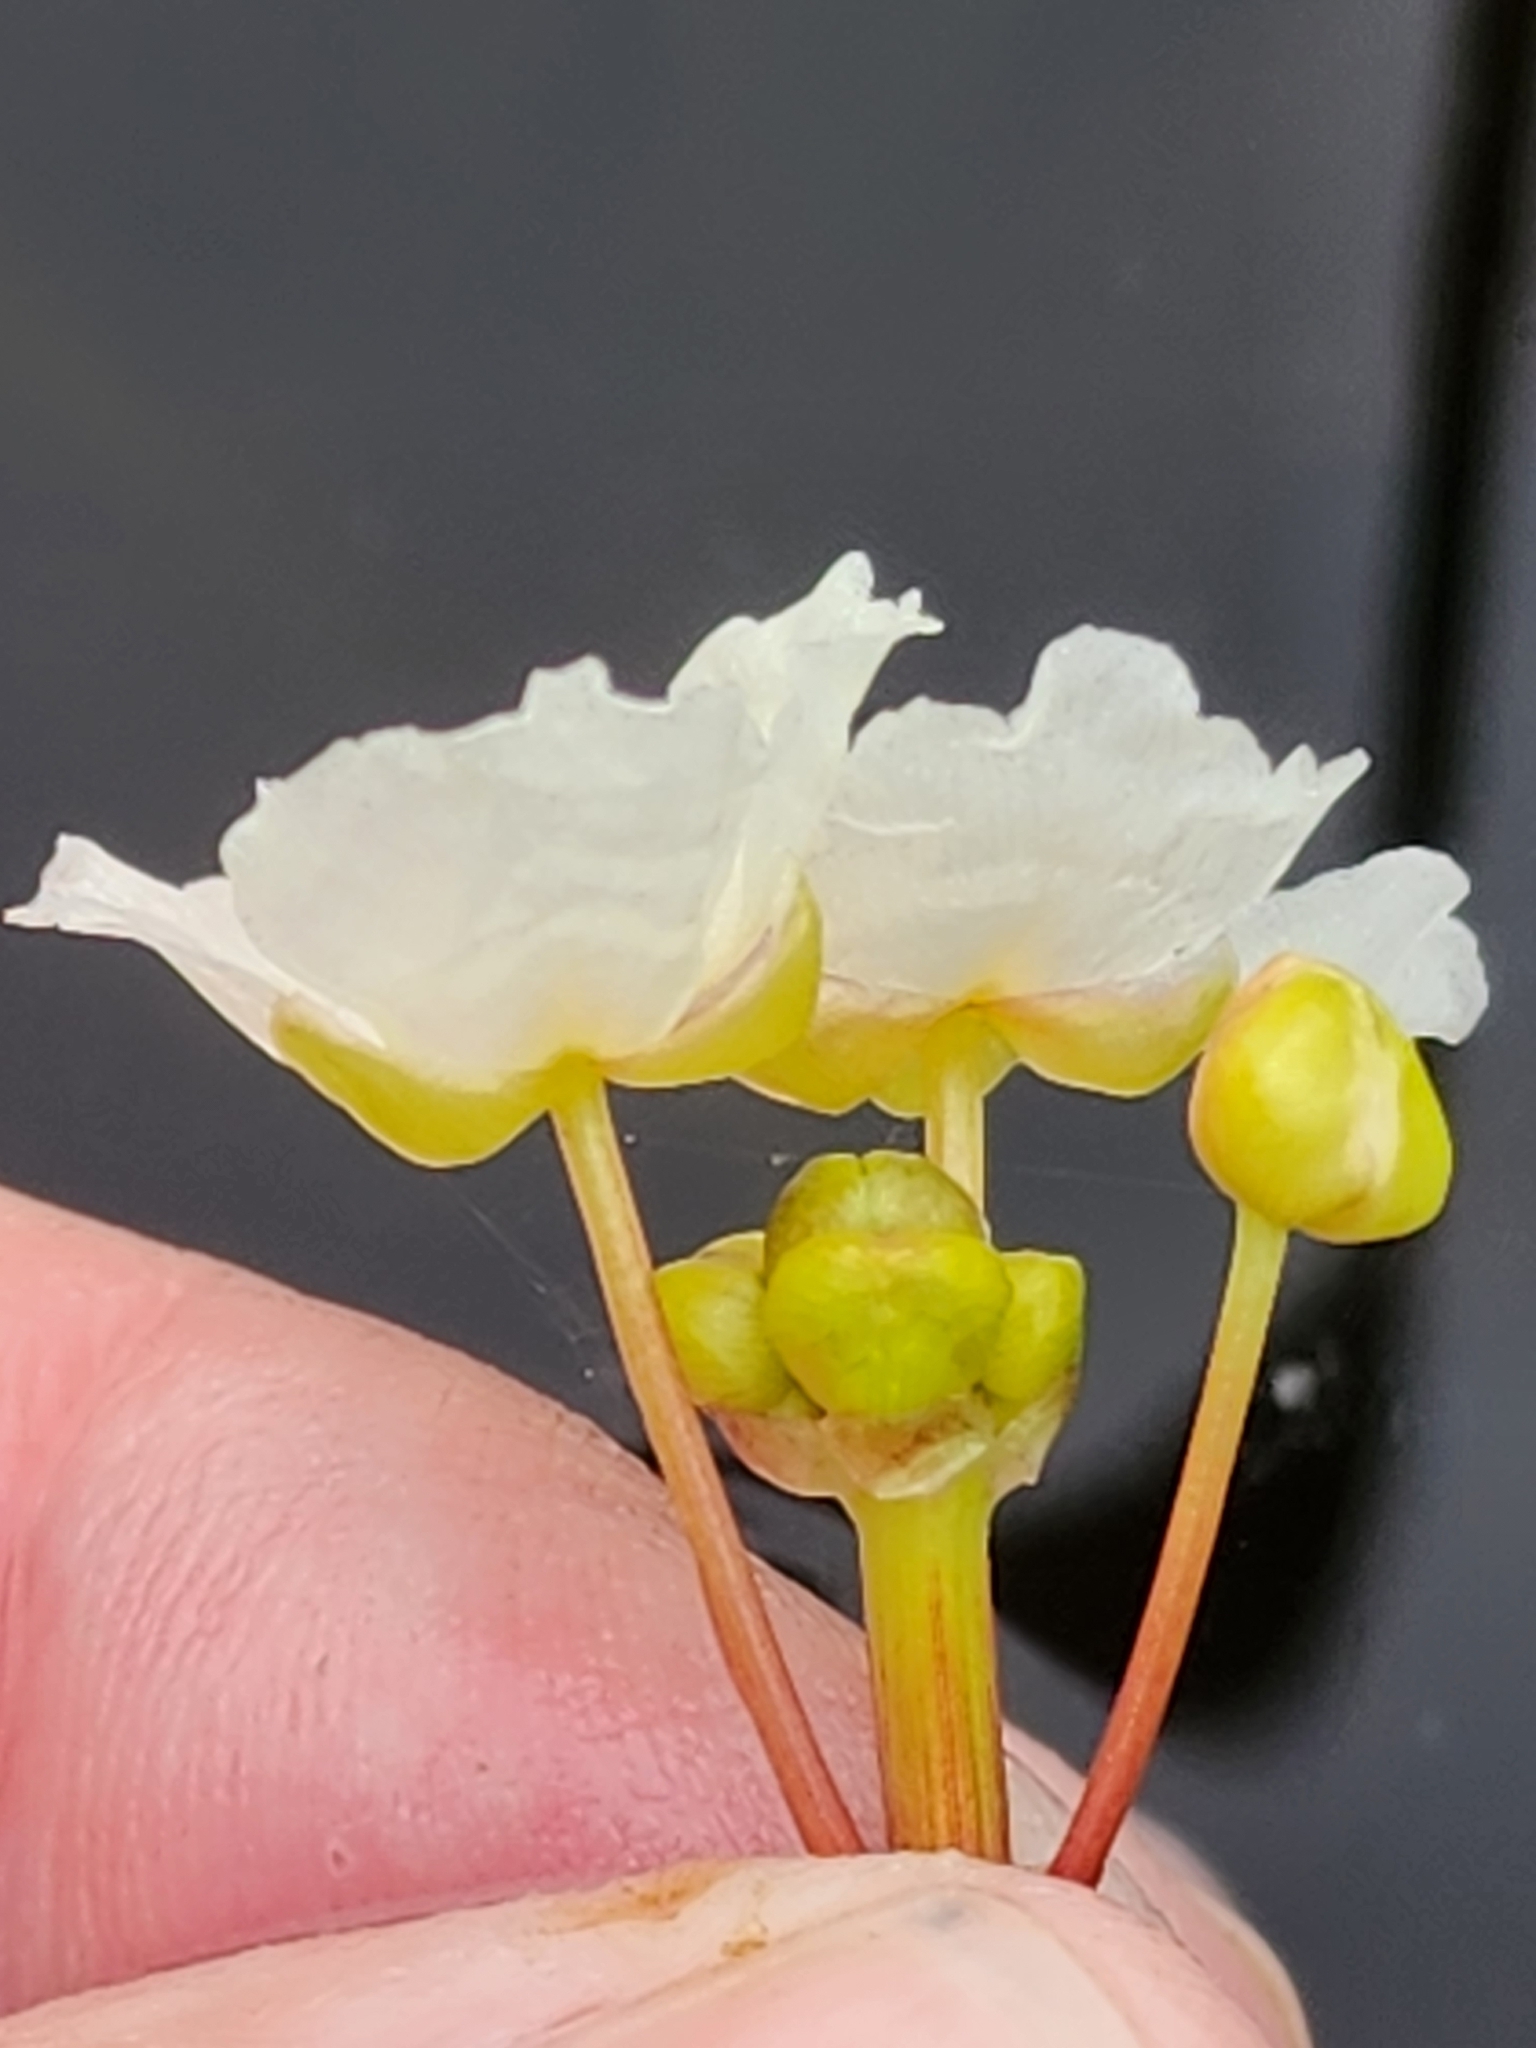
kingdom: Plantae
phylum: Tracheophyta
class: Liliopsida
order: Alismatales
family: Alismataceae
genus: Sagittaria
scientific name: Sagittaria rigida
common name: Canadian arrowhead
